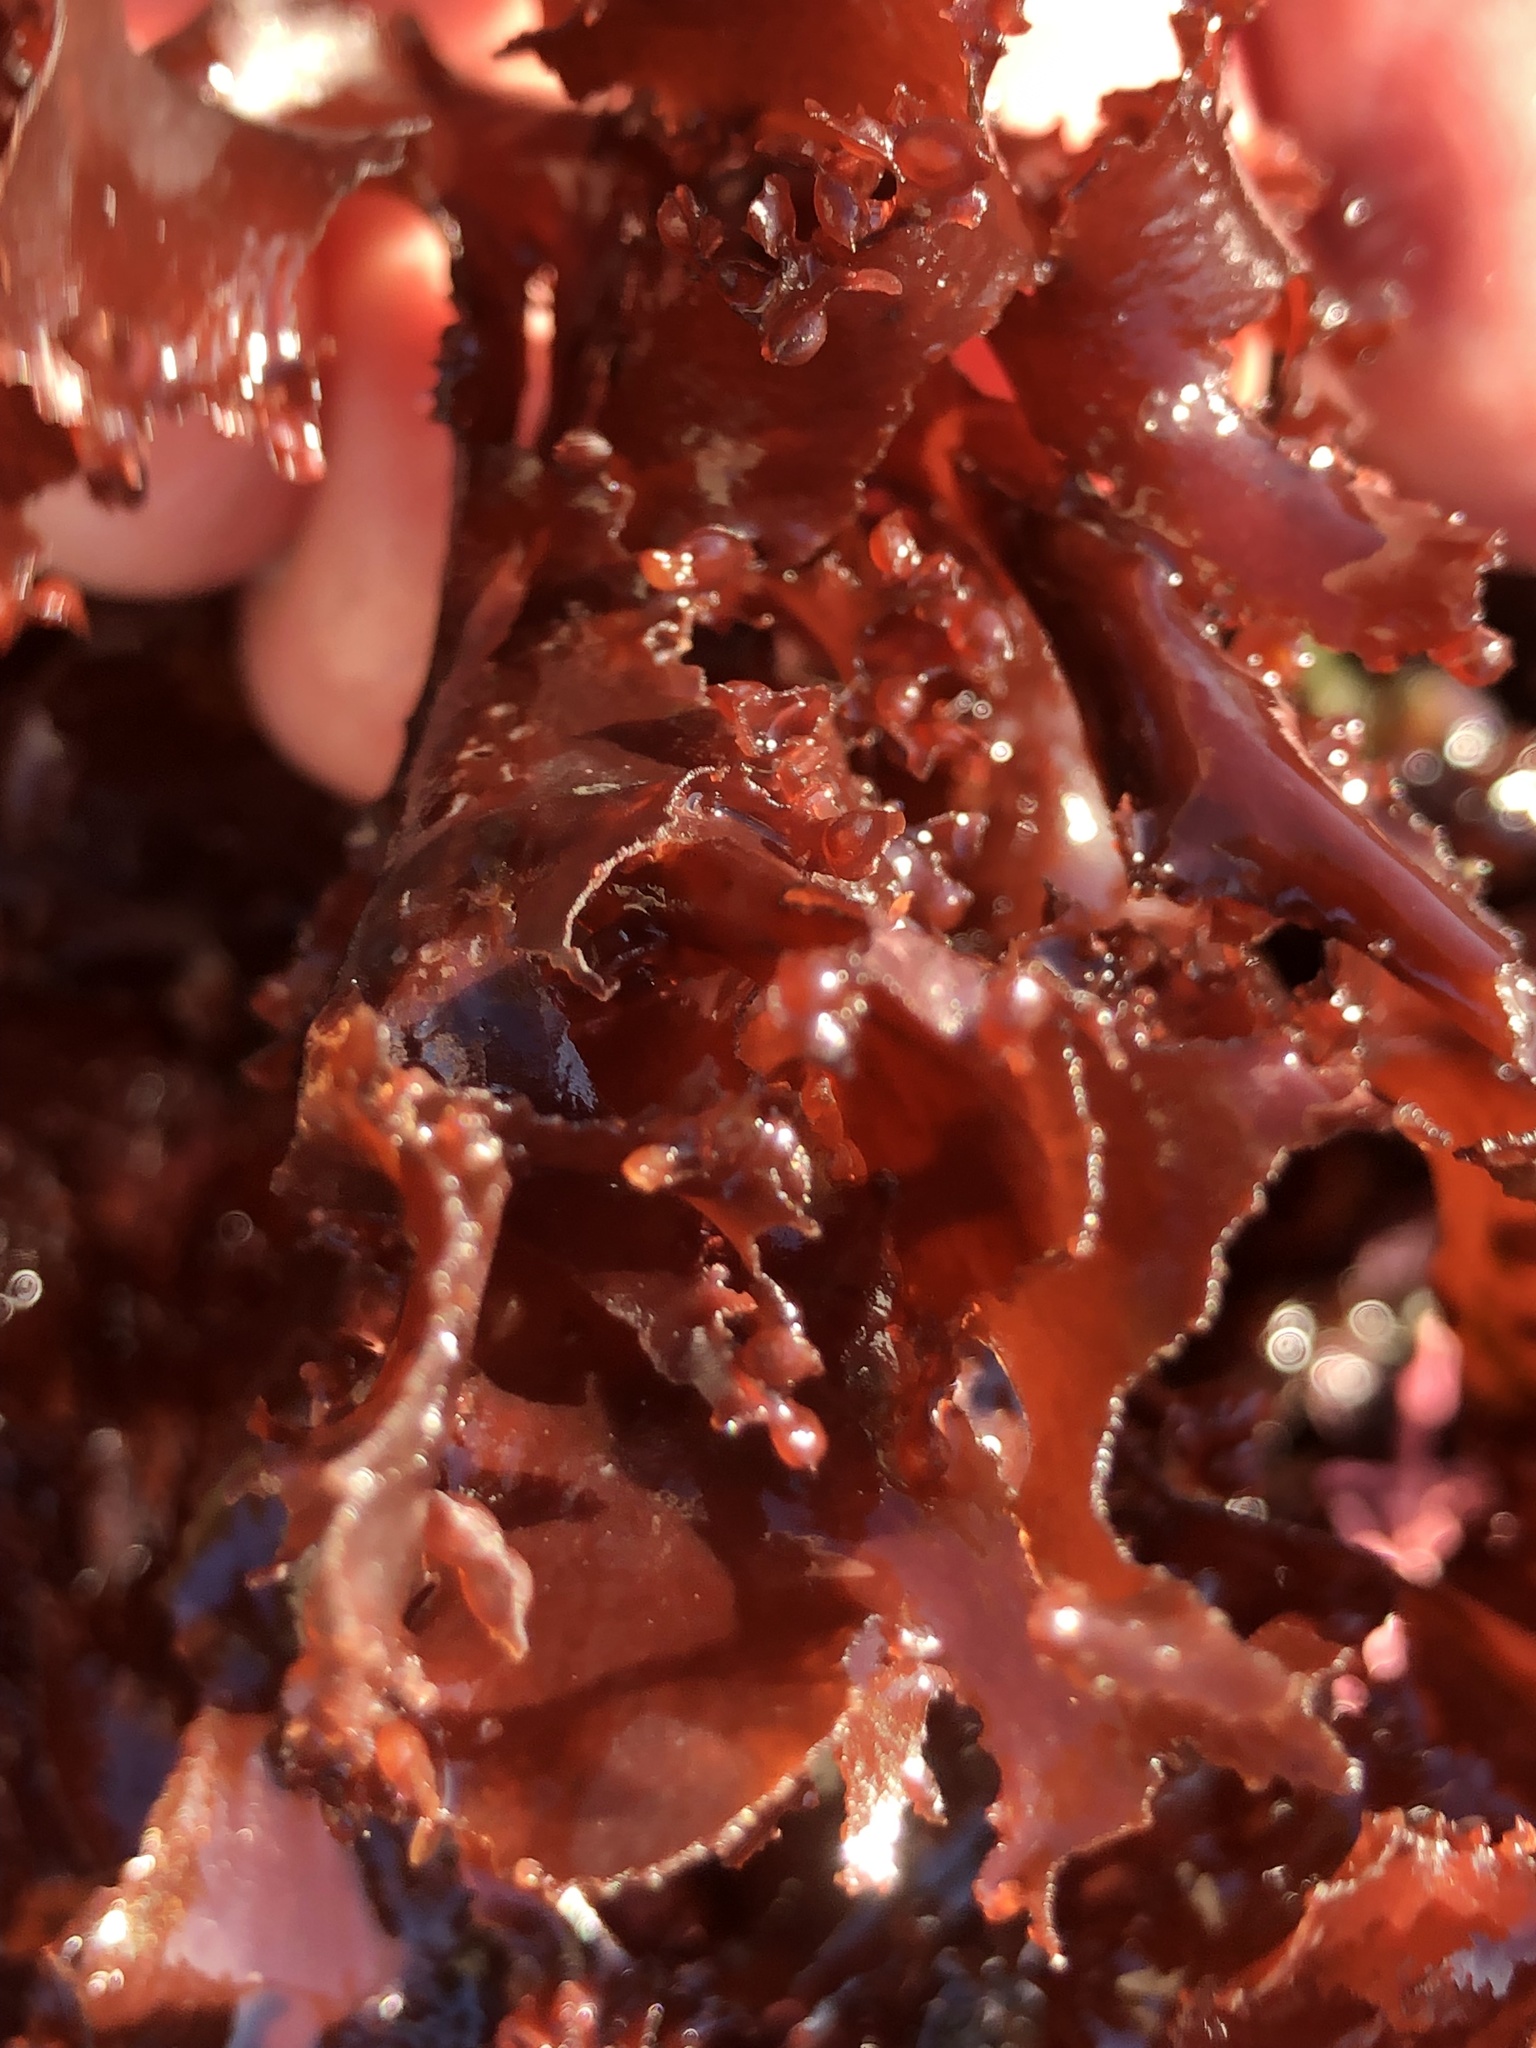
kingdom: Plantae
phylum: Rhodophyta
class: Florideophyceae
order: Ceramiales
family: Delesseriaceae
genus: Cryptopleura
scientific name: Cryptopleura ruprechtiana
